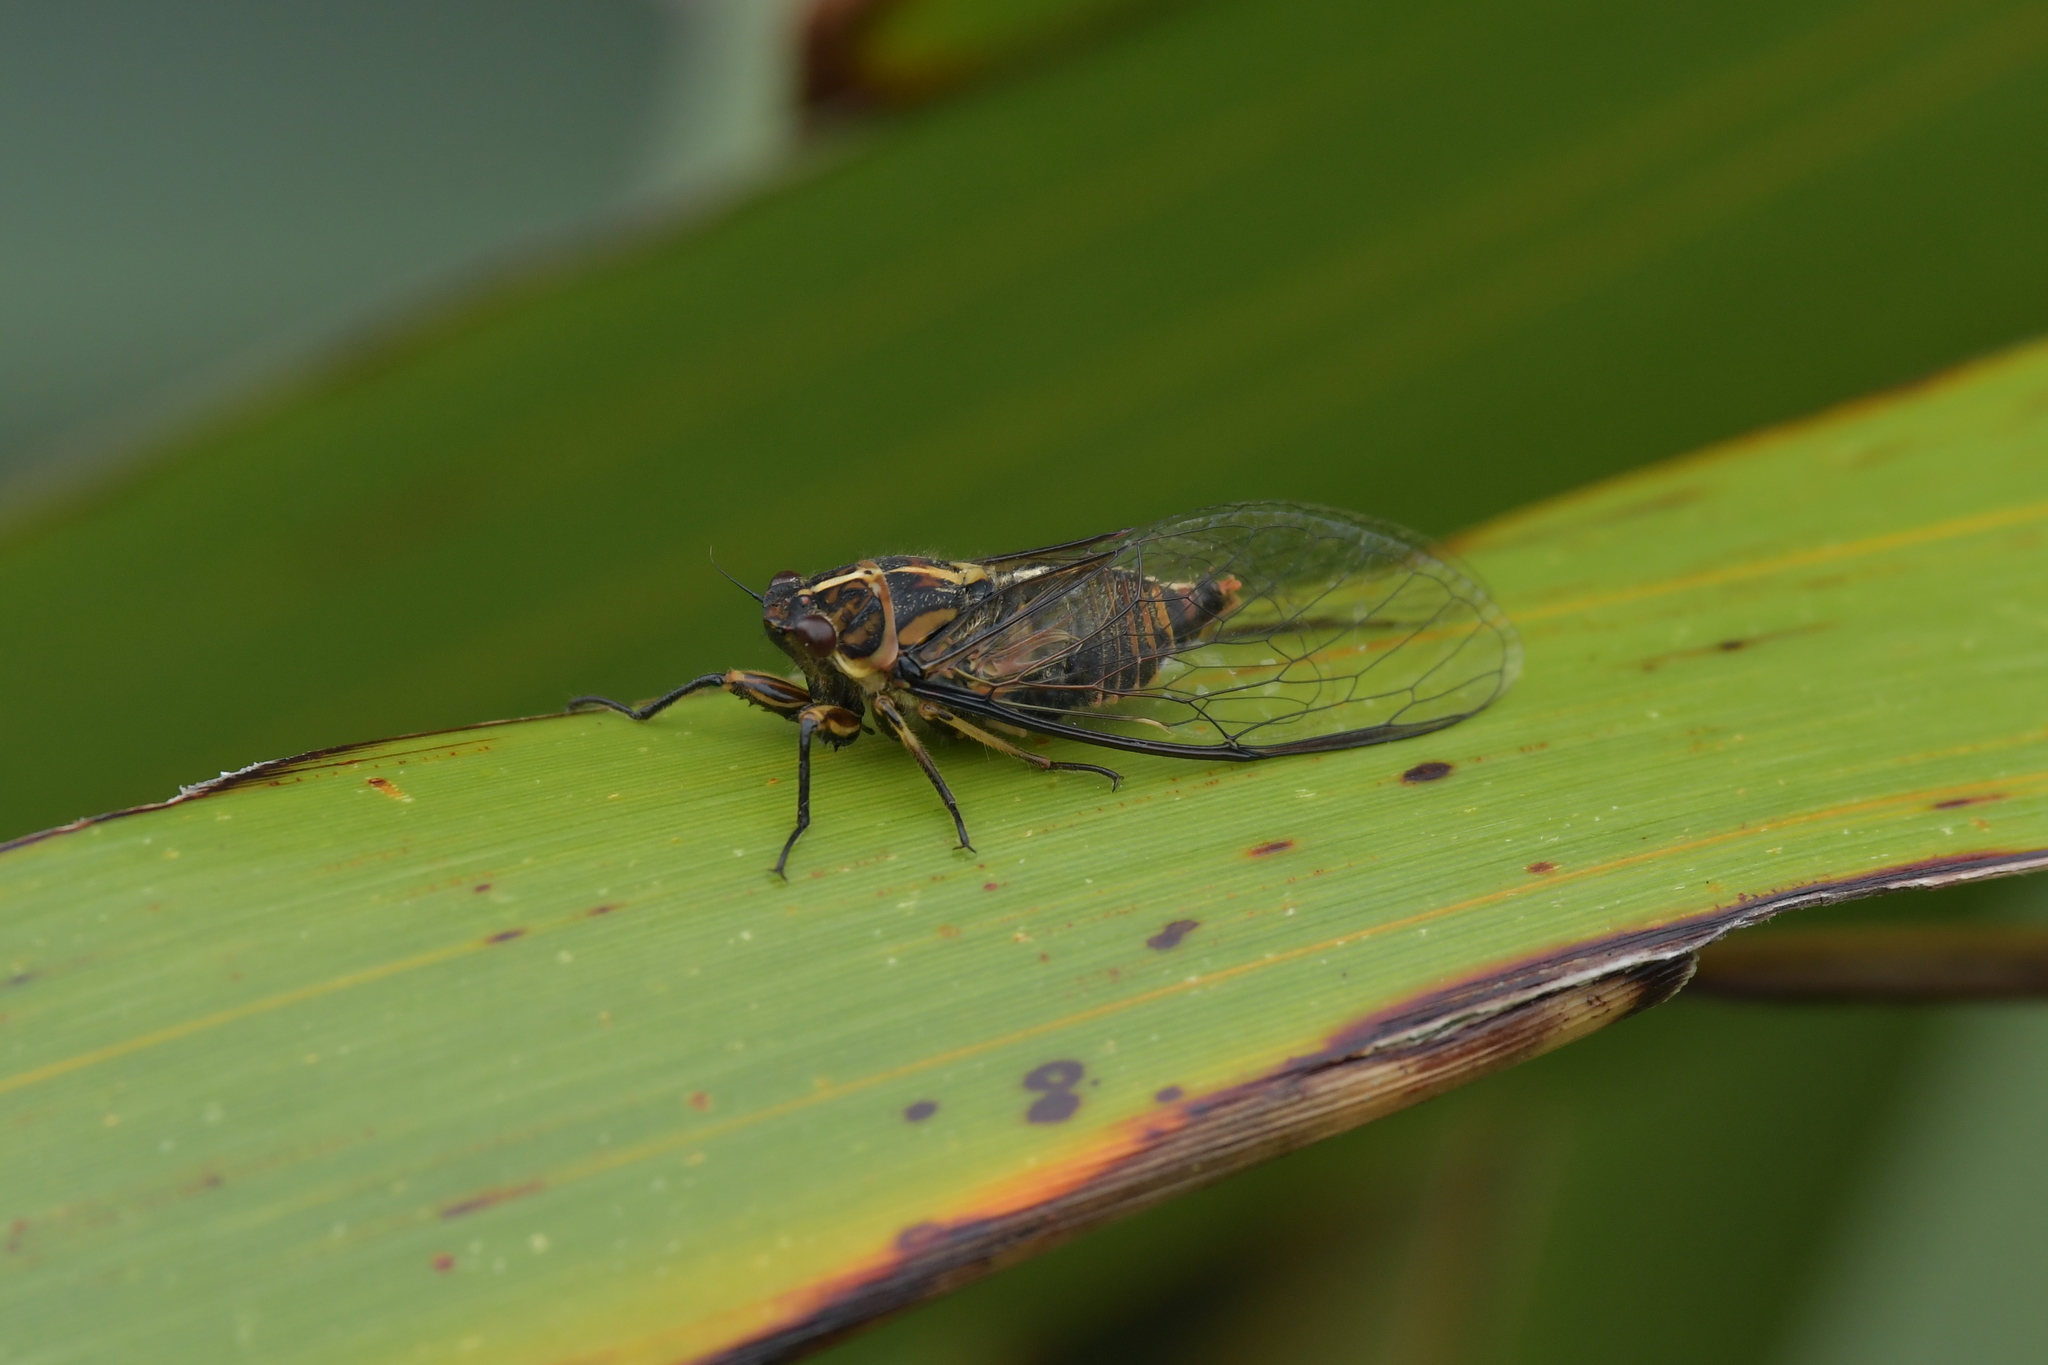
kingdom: Animalia
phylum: Arthropoda
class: Insecta
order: Hemiptera
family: Cicadidae
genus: Kikihia
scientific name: Kikihia longula
